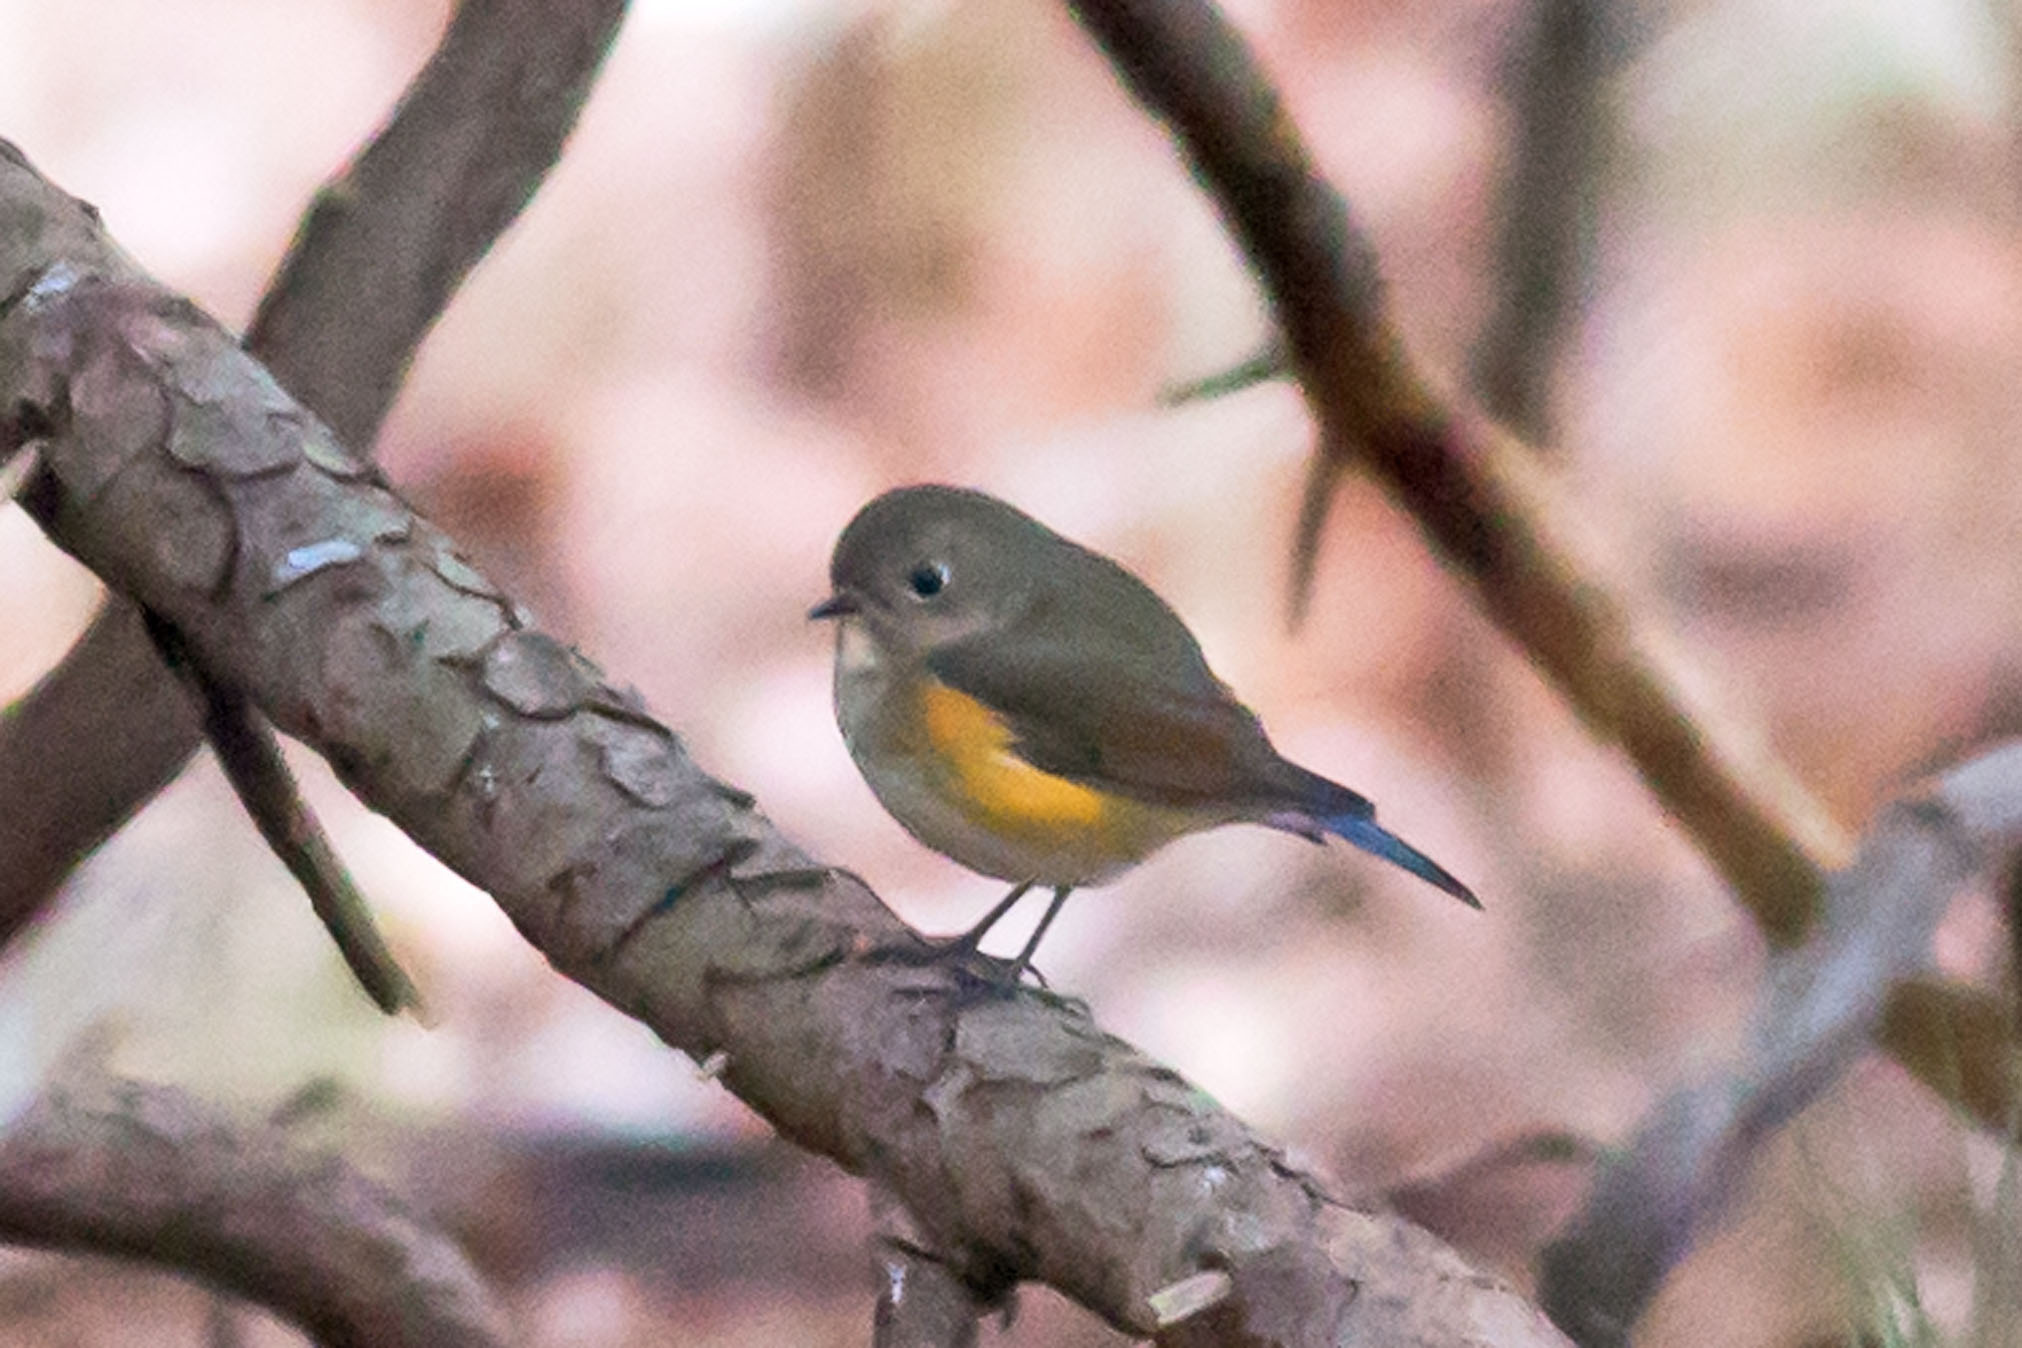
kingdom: Animalia
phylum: Chordata
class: Aves
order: Passeriformes
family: Muscicapidae
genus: Tarsiger
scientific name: Tarsiger cyanurus
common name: Red-flanked bluetail
